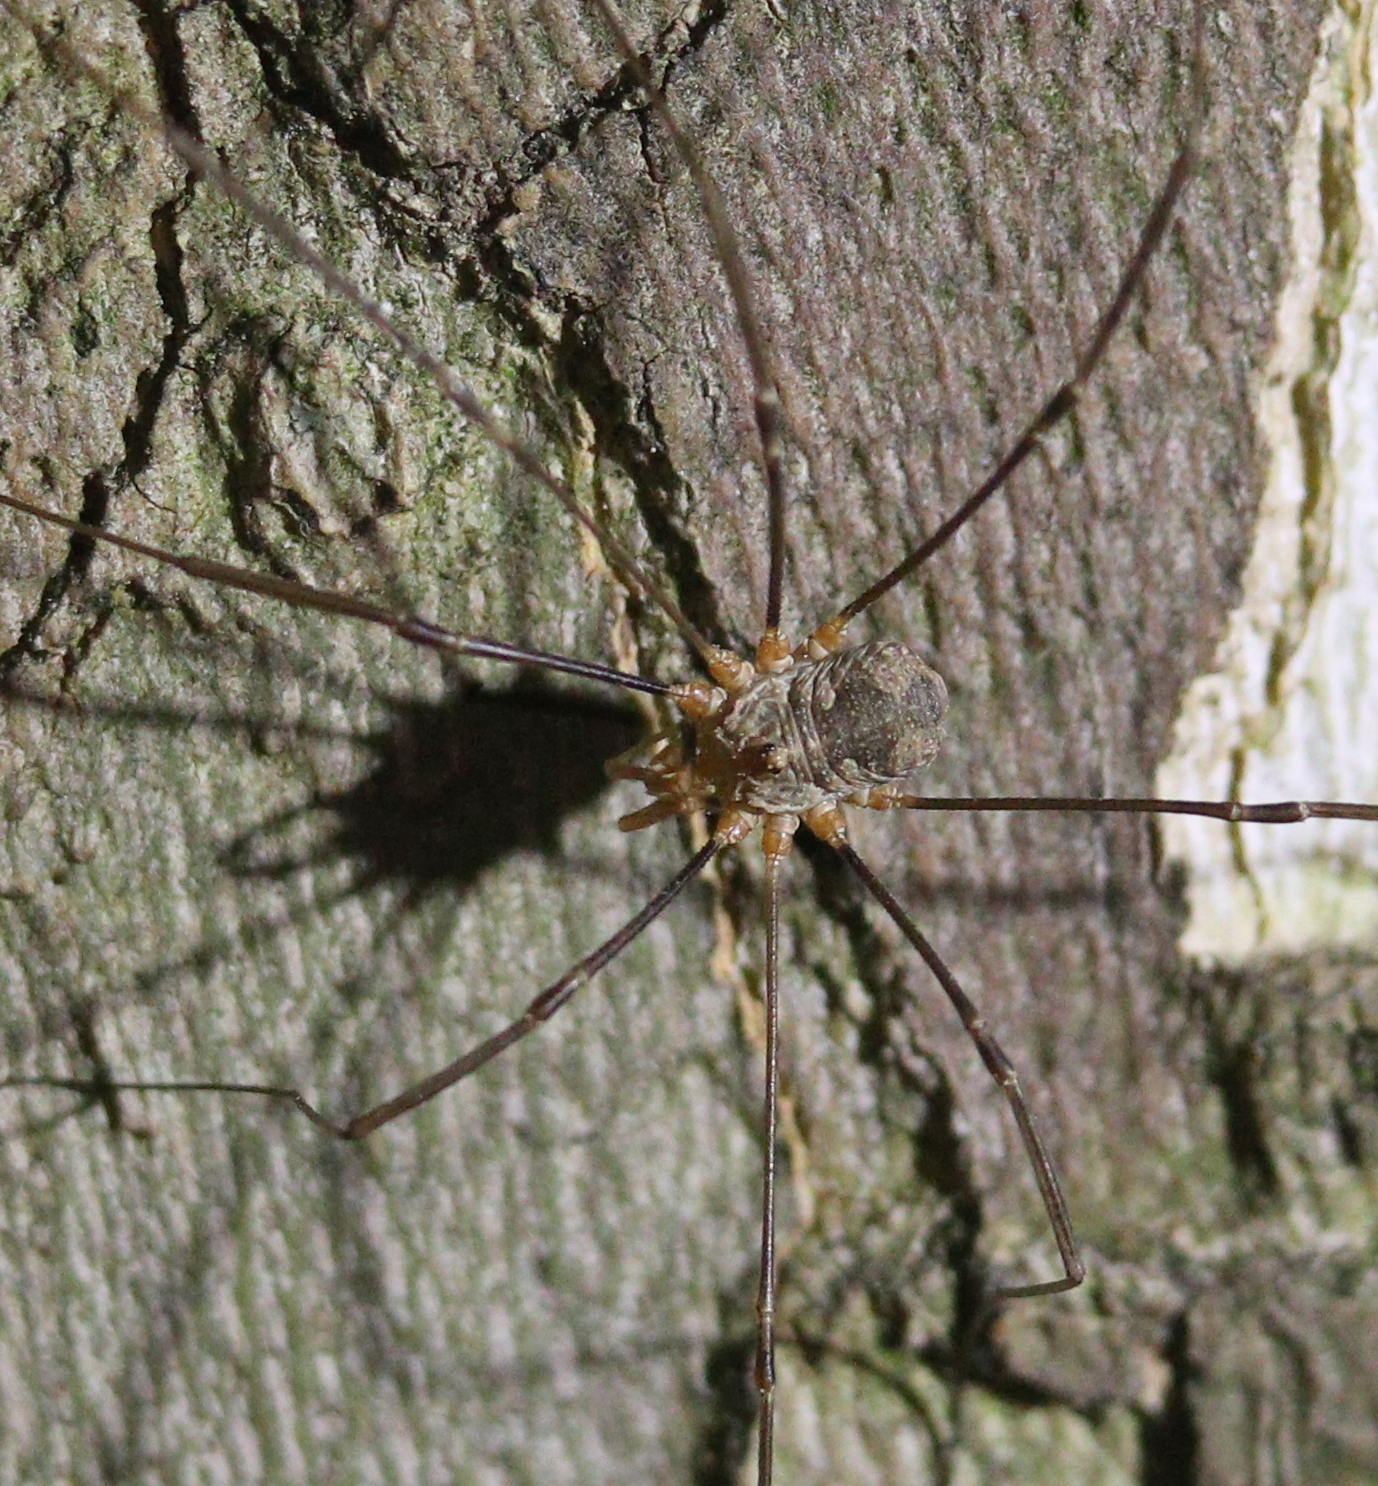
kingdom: Animalia
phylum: Arthropoda
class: Arachnida
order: Opiliones
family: Phalangiidae
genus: Phalangium
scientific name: Phalangium opilio
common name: Daddy longleg
